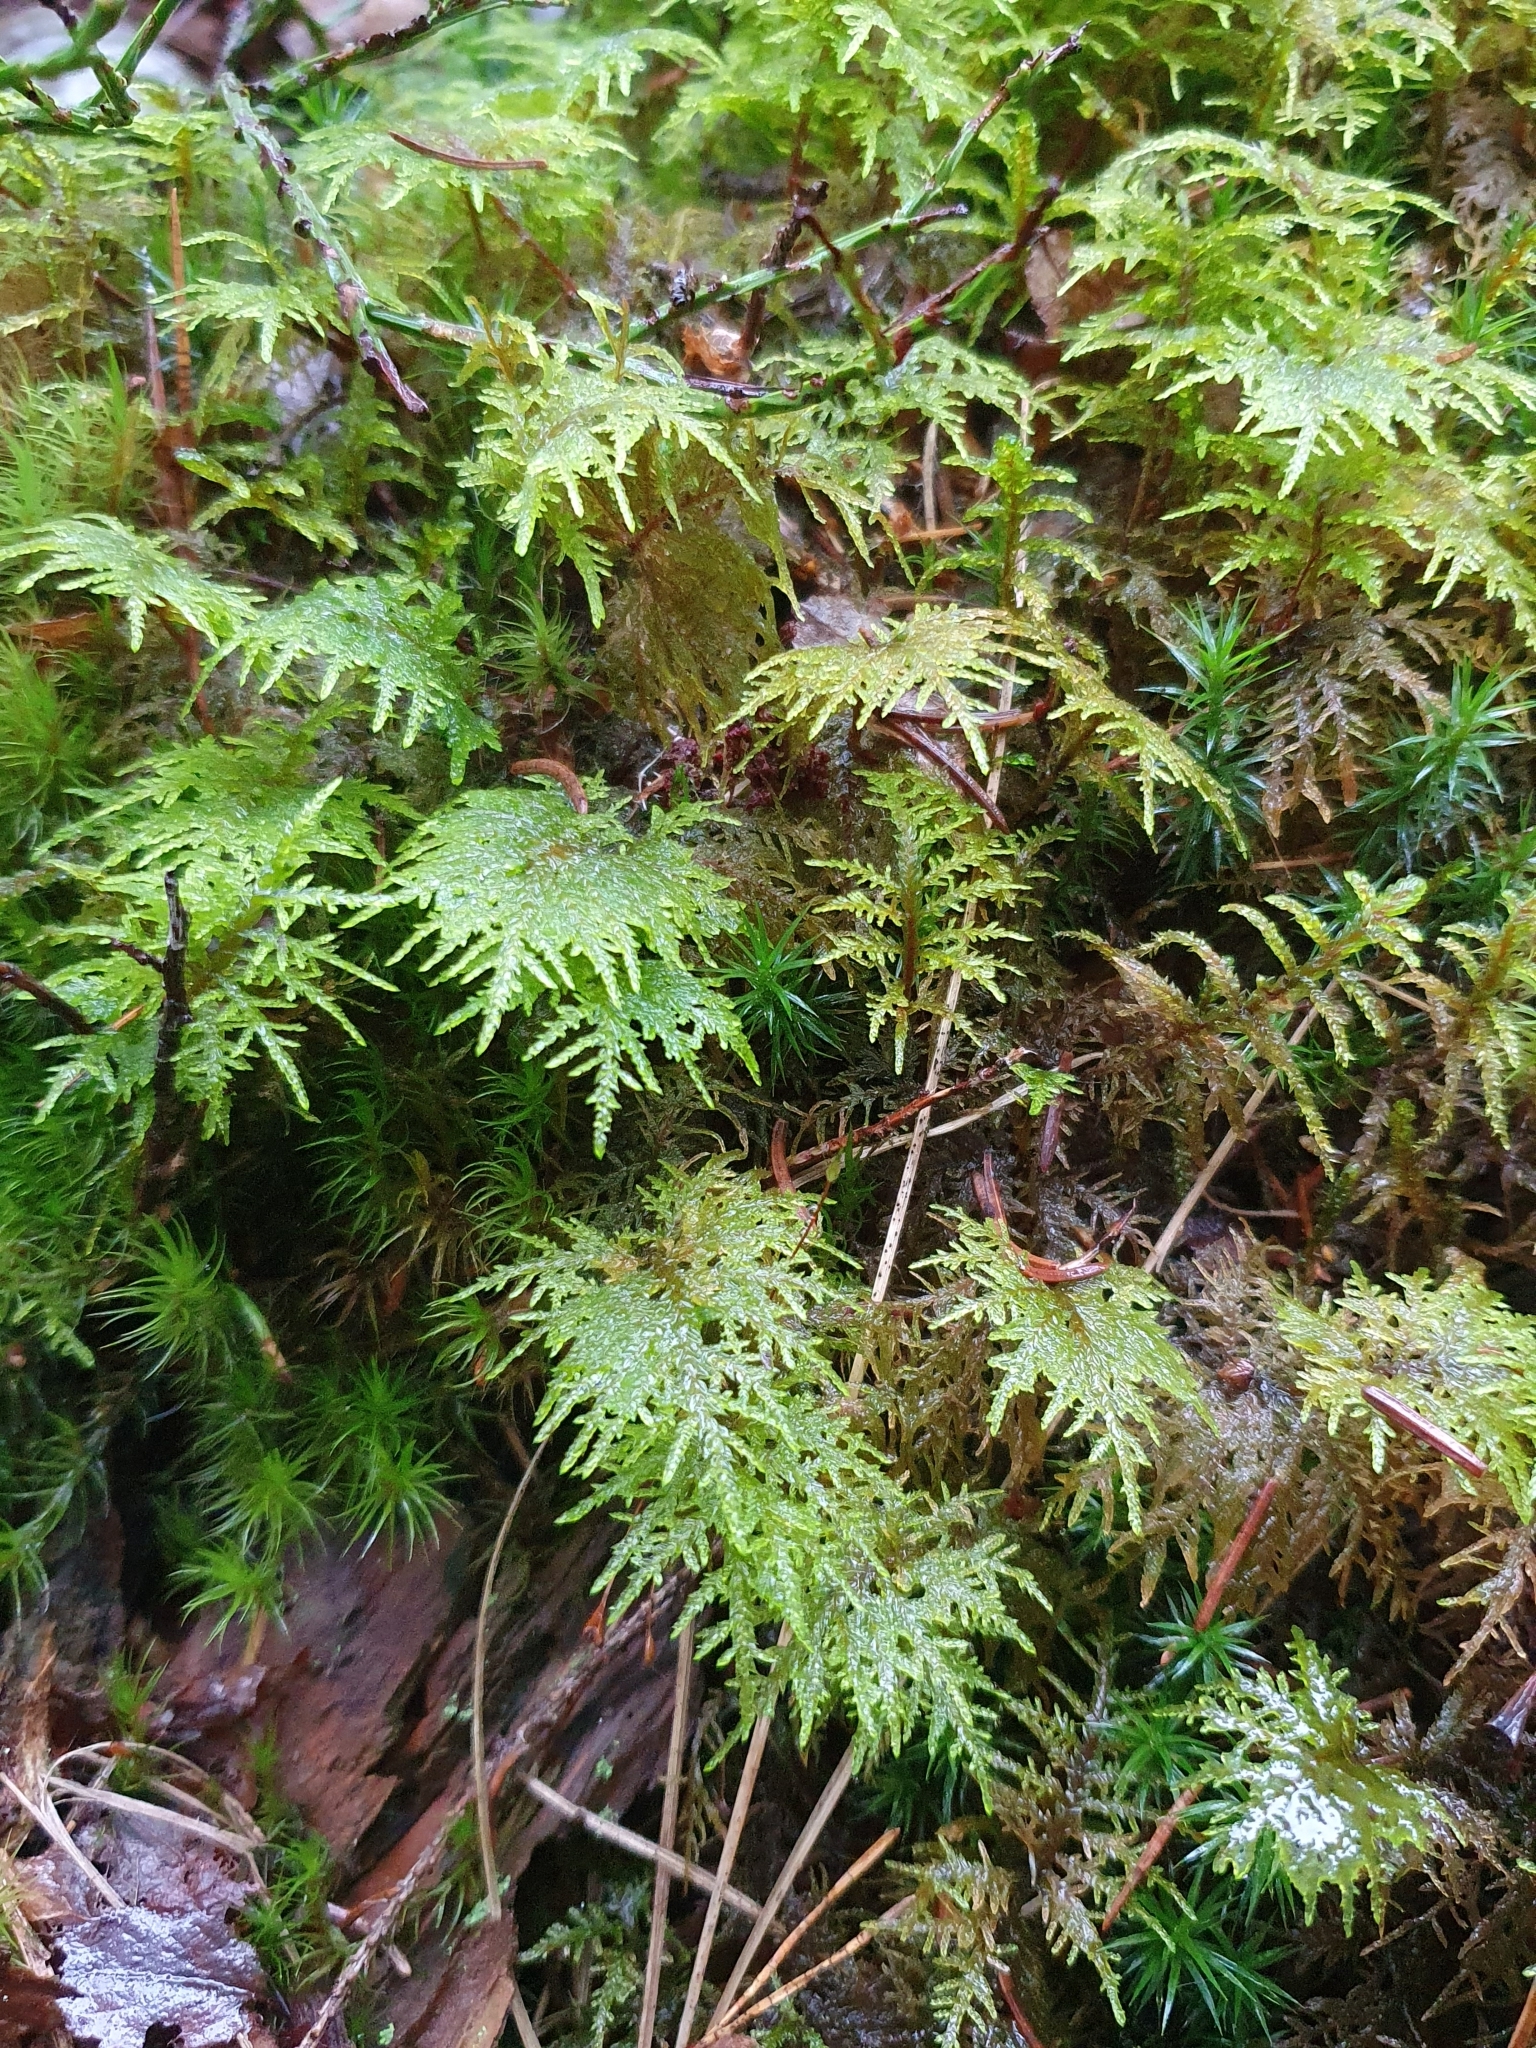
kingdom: Plantae
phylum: Bryophyta
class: Bryopsida
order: Hypnales
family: Hylocomiaceae
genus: Hylocomium
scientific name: Hylocomium splendens
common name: Stairstep moss
